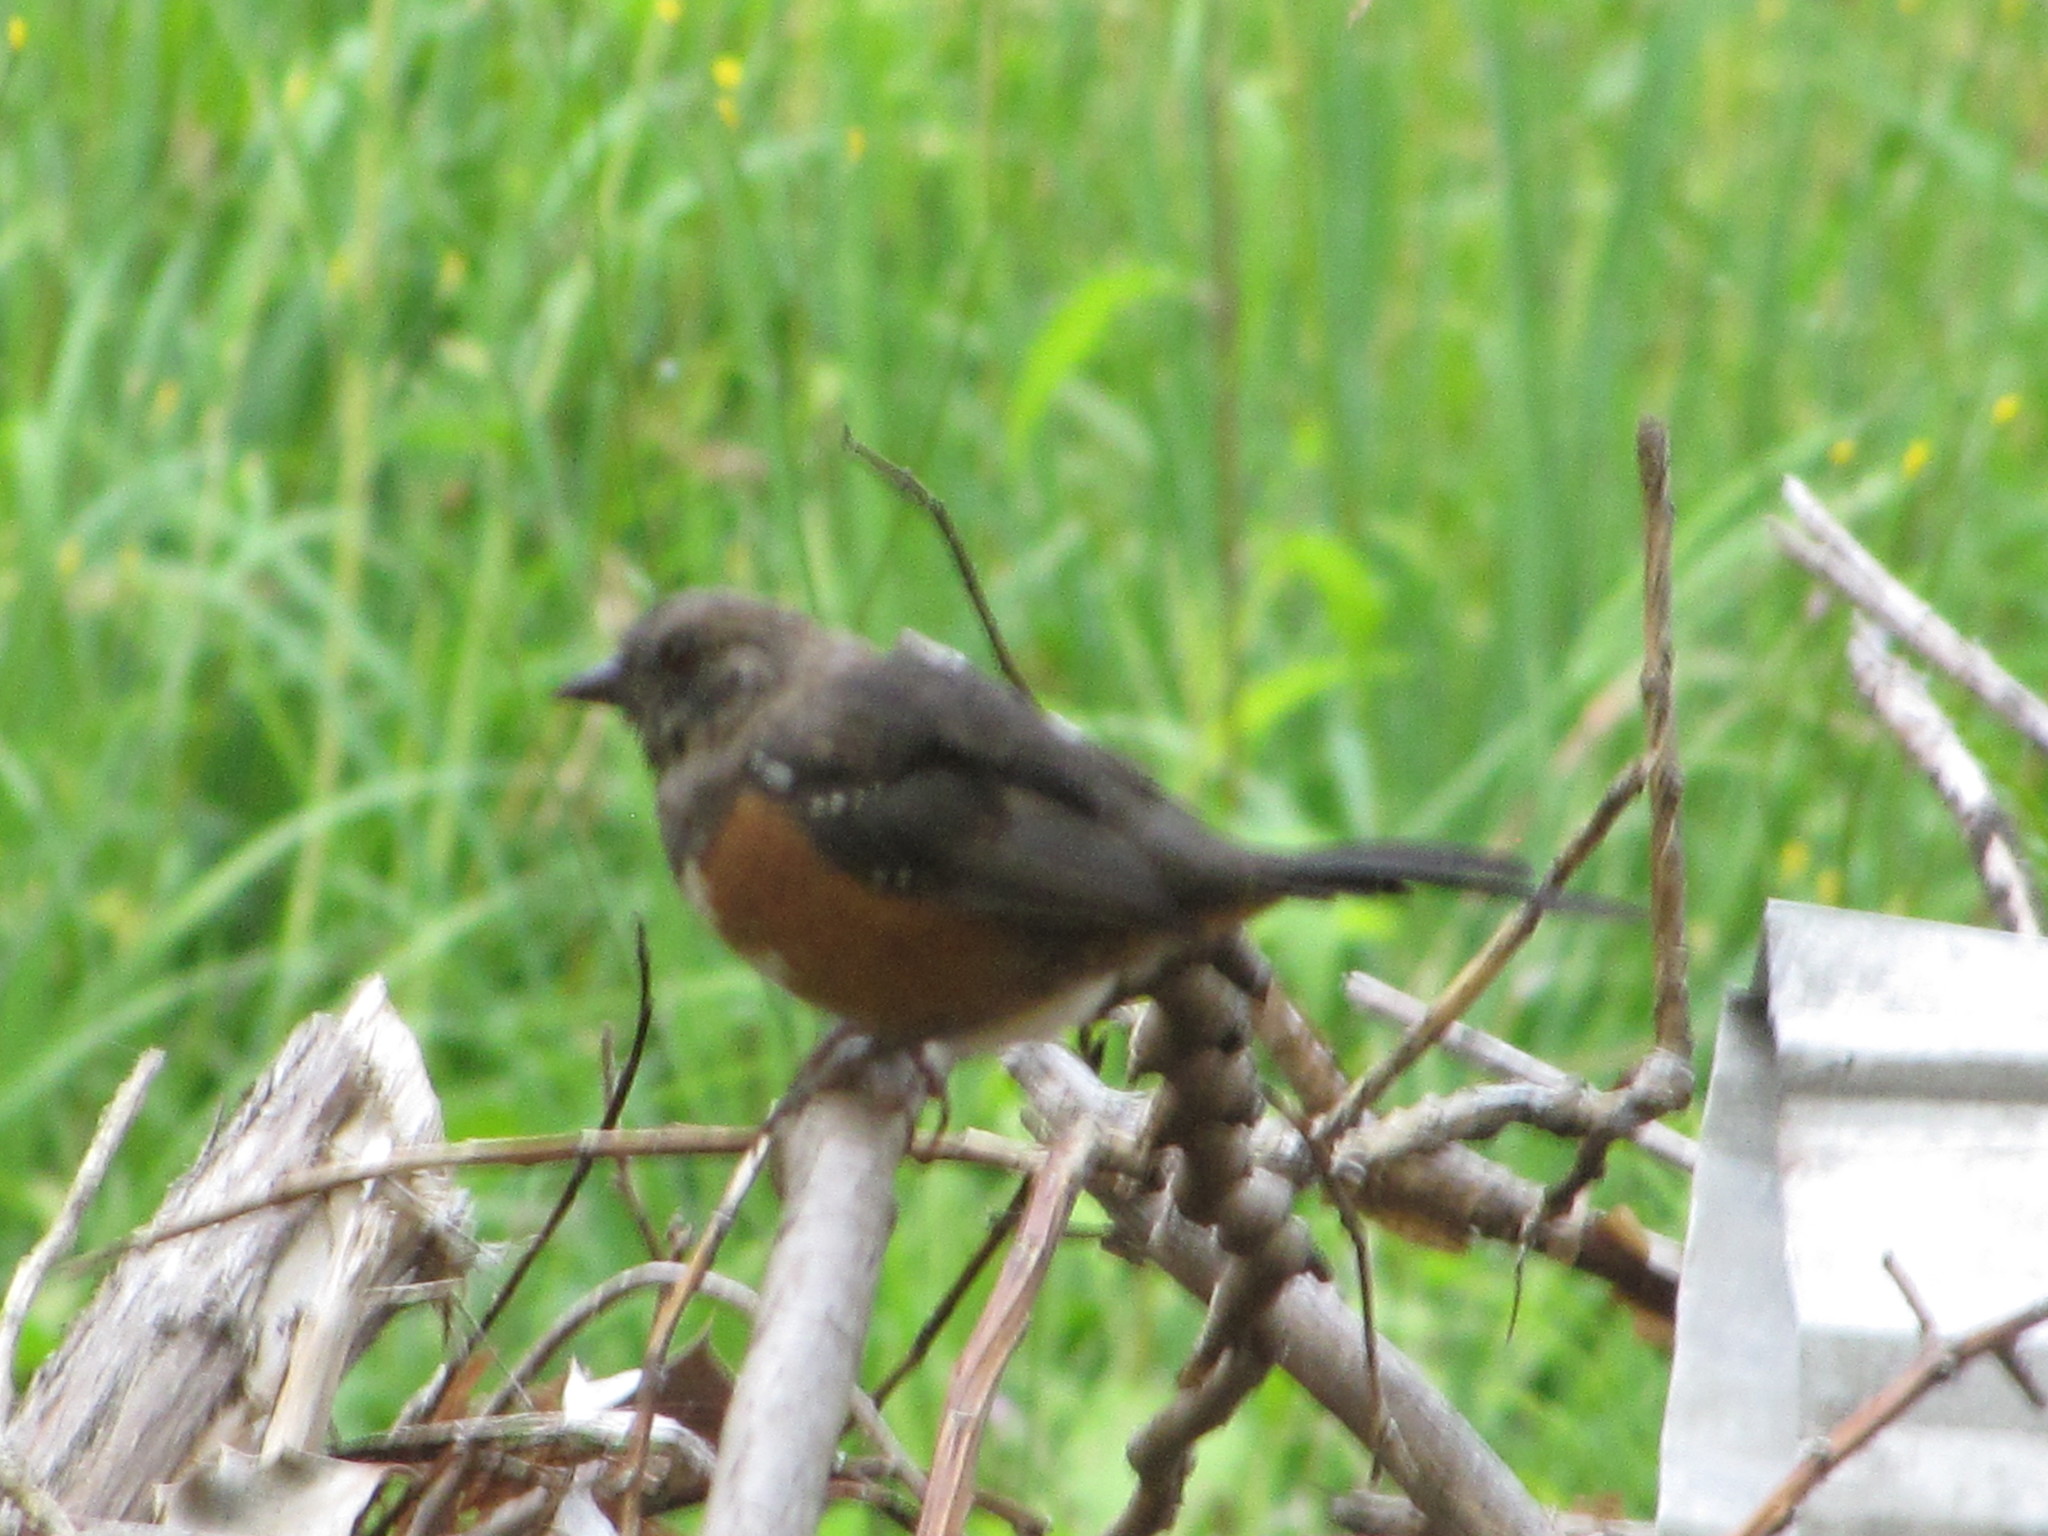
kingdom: Animalia
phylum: Chordata
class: Aves
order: Passeriformes
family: Passerellidae
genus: Pipilo
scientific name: Pipilo maculatus
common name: Spotted towhee
